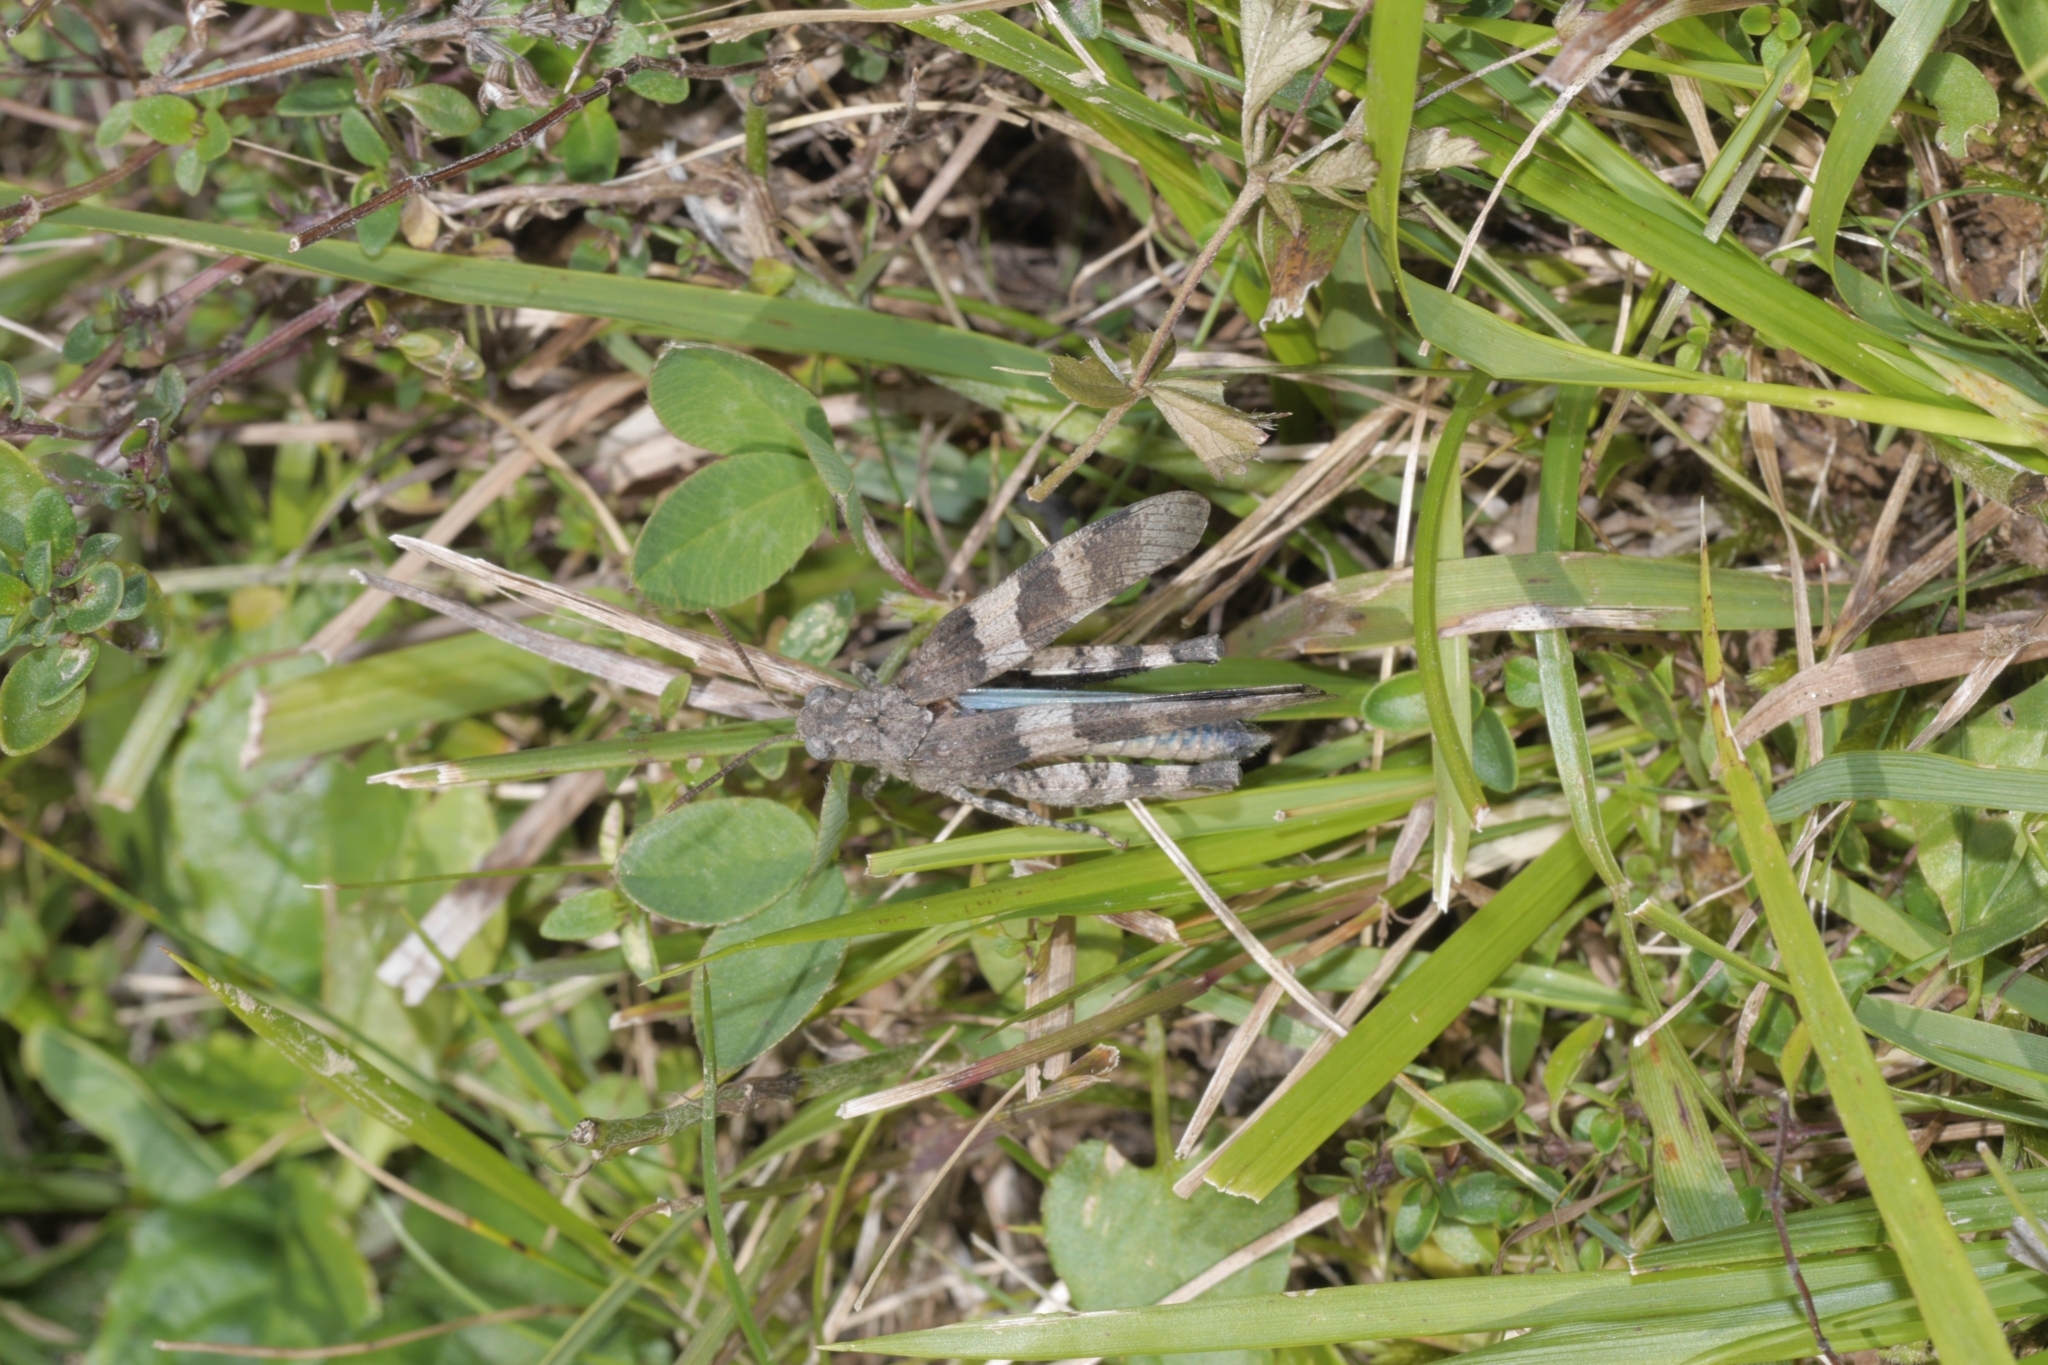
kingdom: Animalia
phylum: Arthropoda
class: Insecta
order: Orthoptera
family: Acrididae
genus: Oedipoda
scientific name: Oedipoda caerulescens
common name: Blue-winged grasshopper
